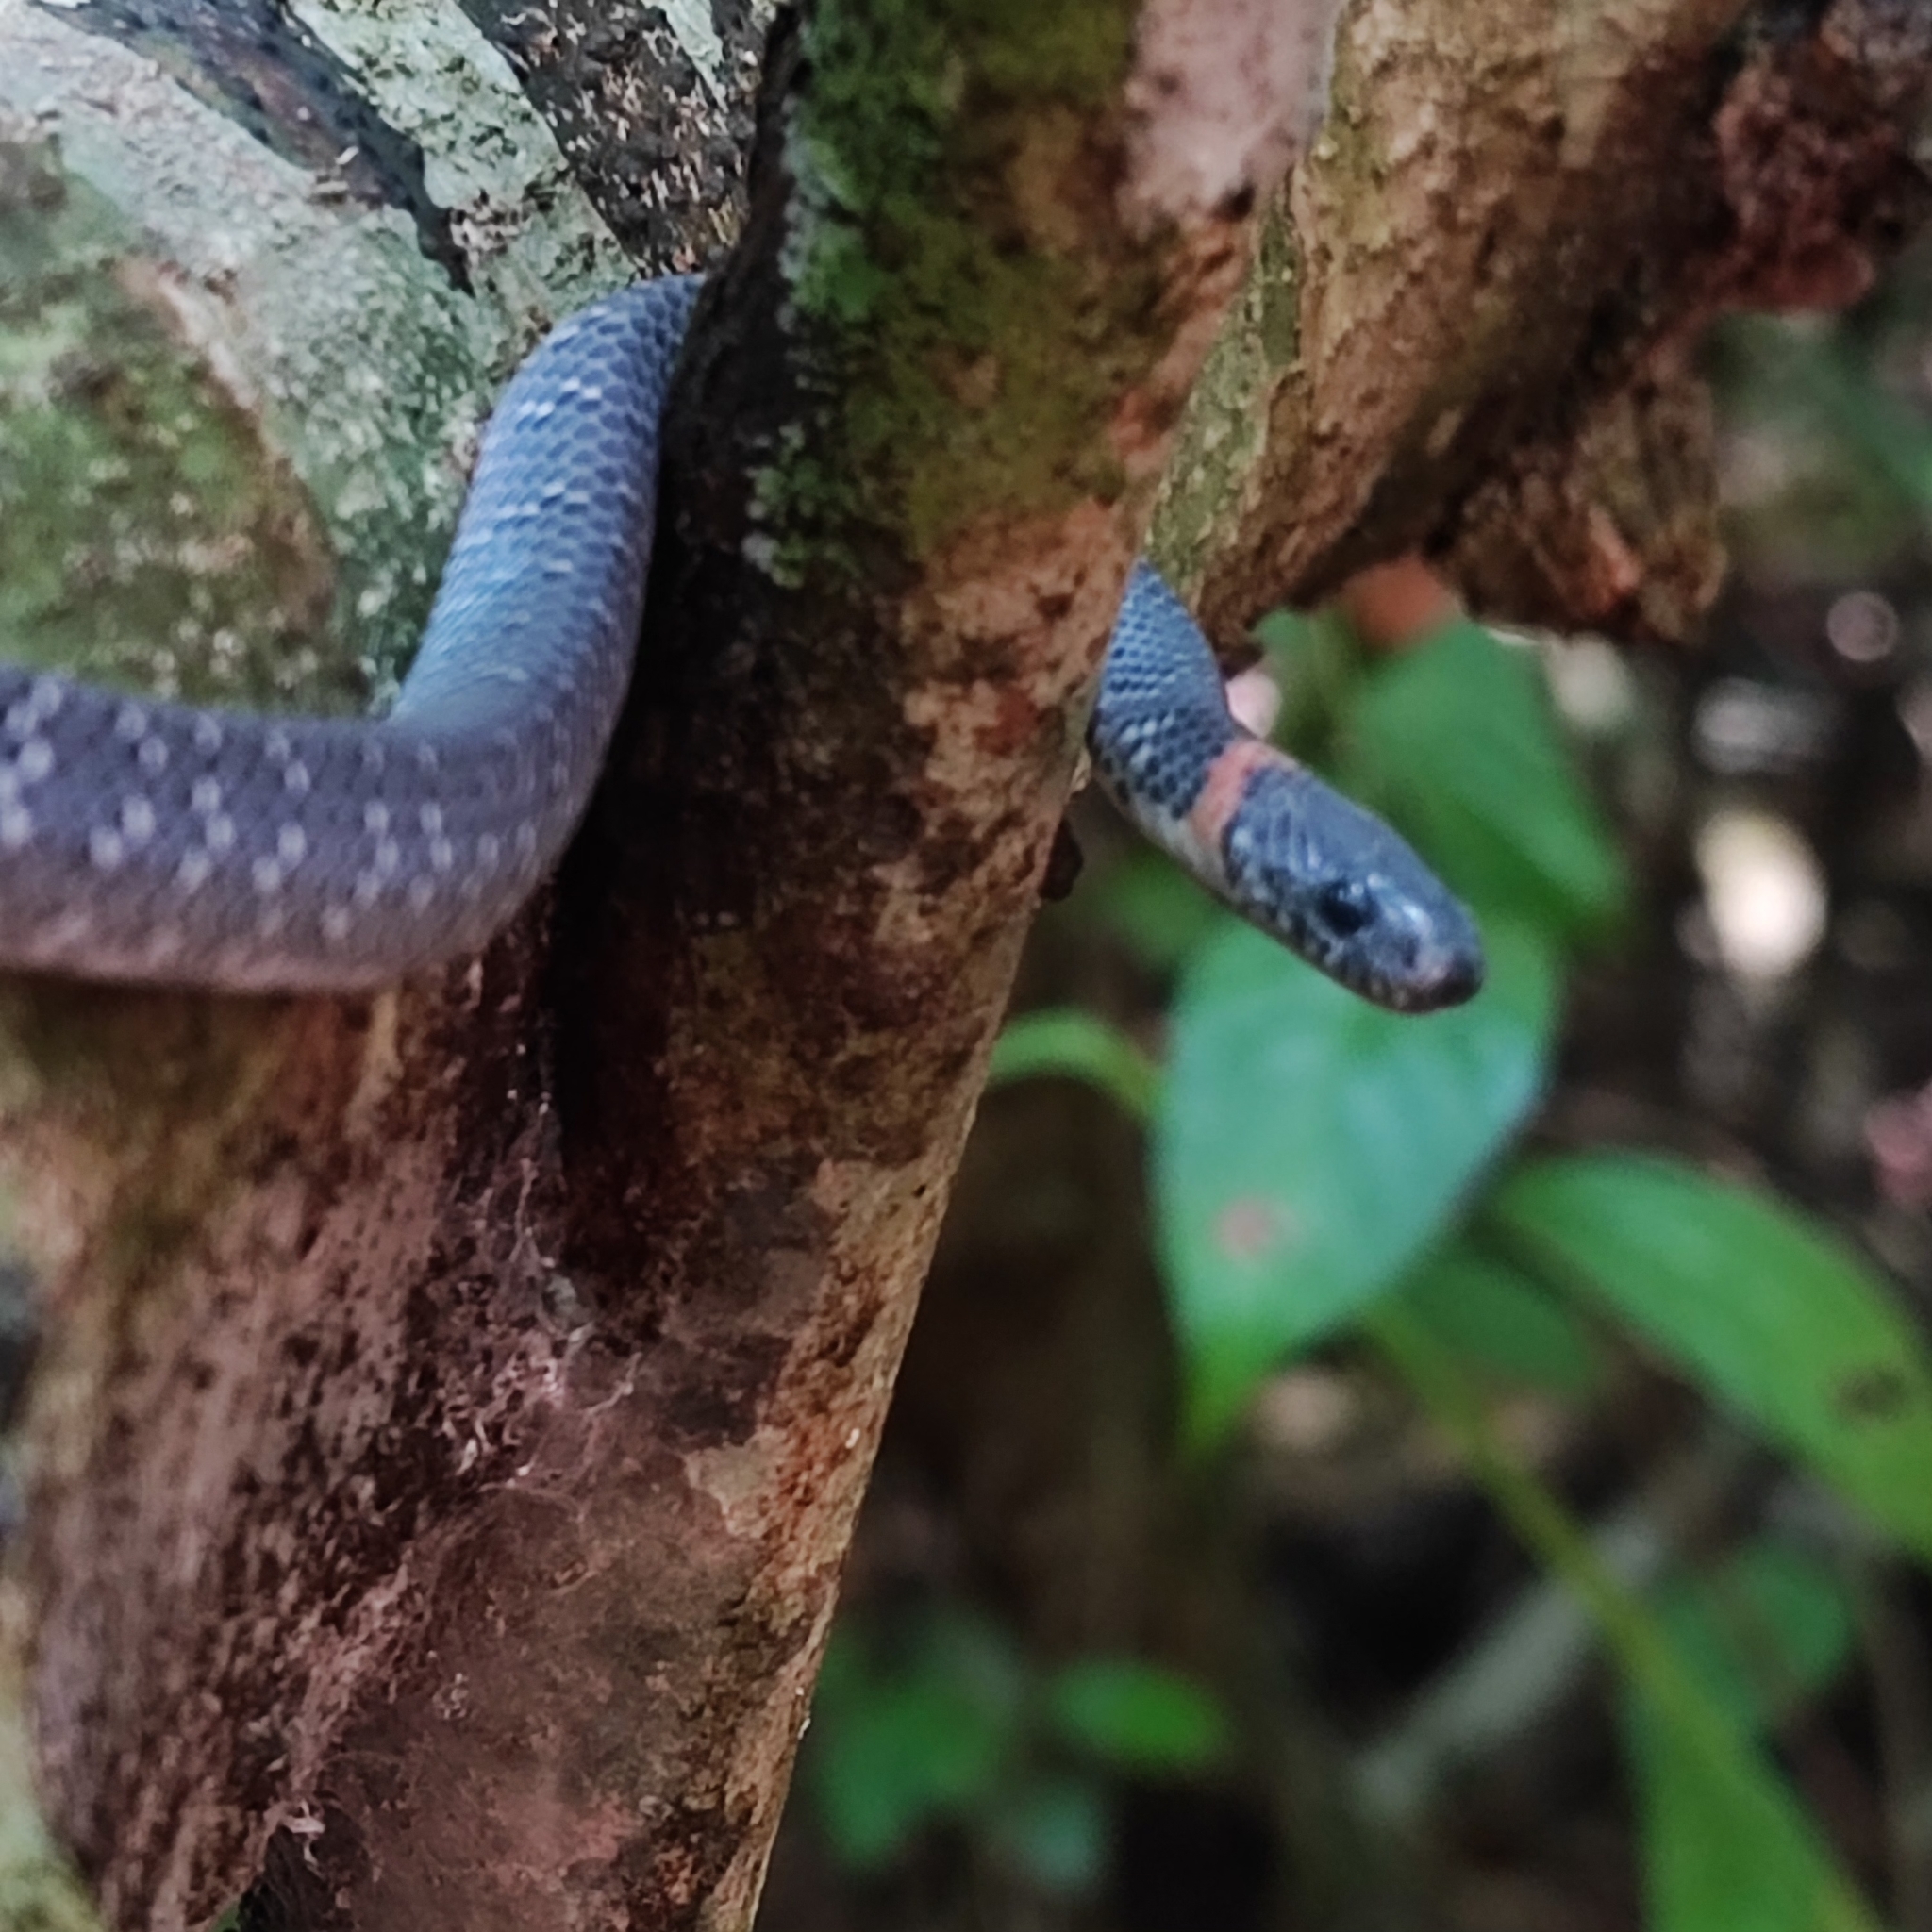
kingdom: Animalia
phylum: Chordata
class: Squamata
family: Pareidae
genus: Pareas
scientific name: Pareas margaritophorus
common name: Mountain slug snake
